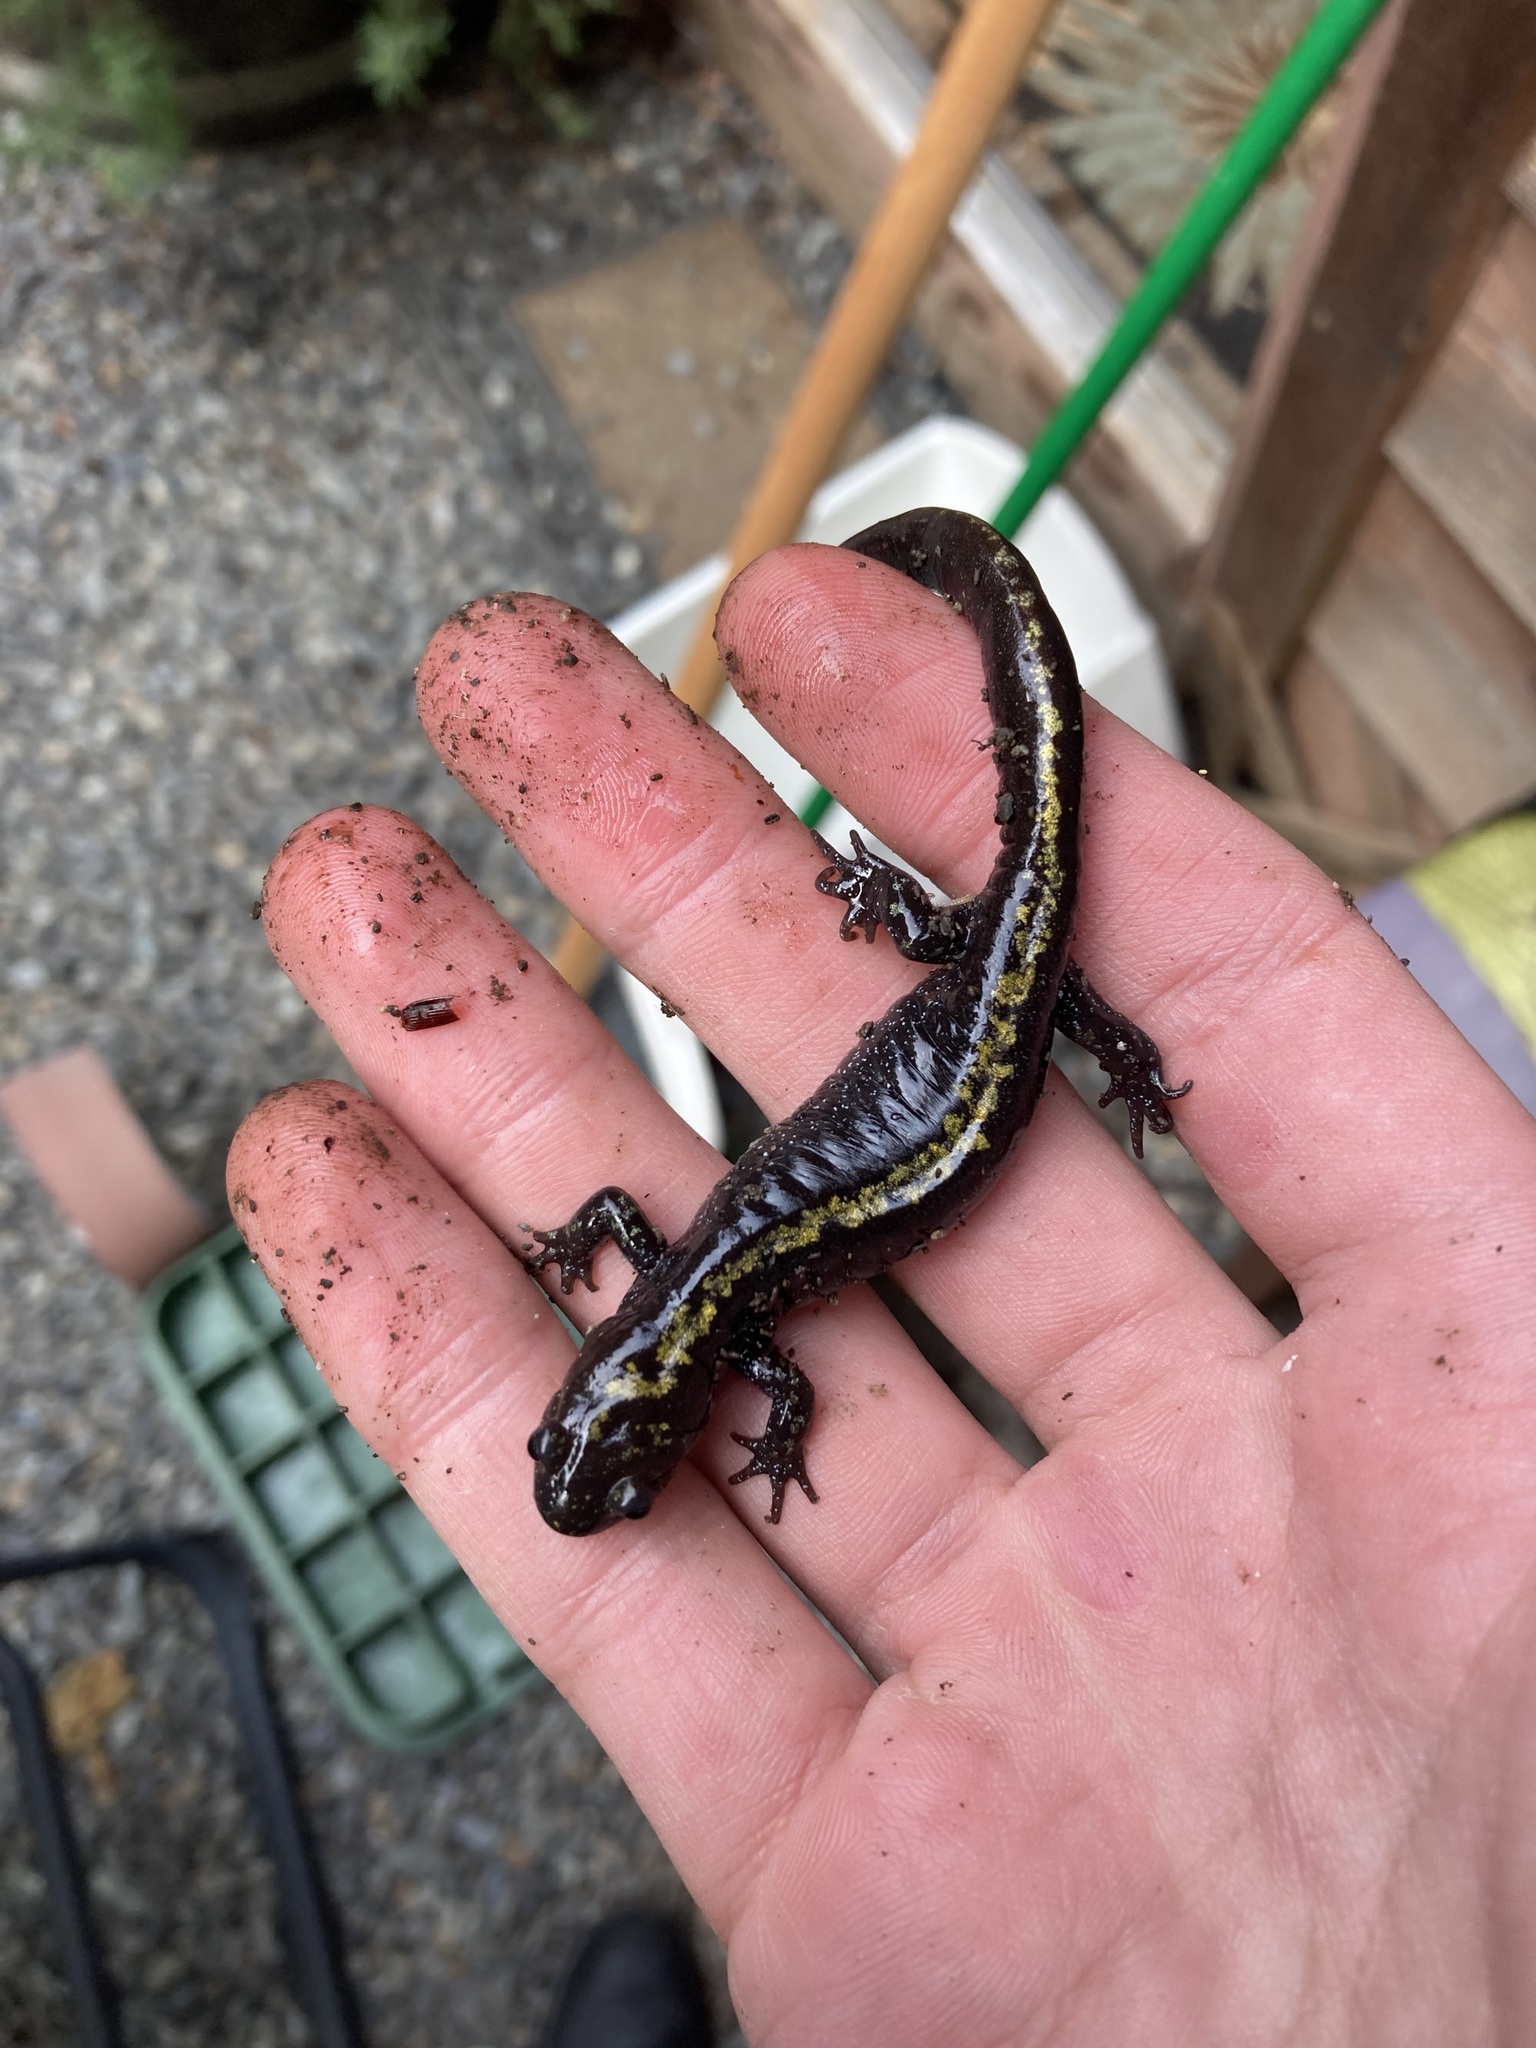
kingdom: Animalia
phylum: Chordata
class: Amphibia
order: Caudata
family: Ambystomatidae
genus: Ambystoma
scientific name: Ambystoma macrodactylum
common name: Long-toed salamander
